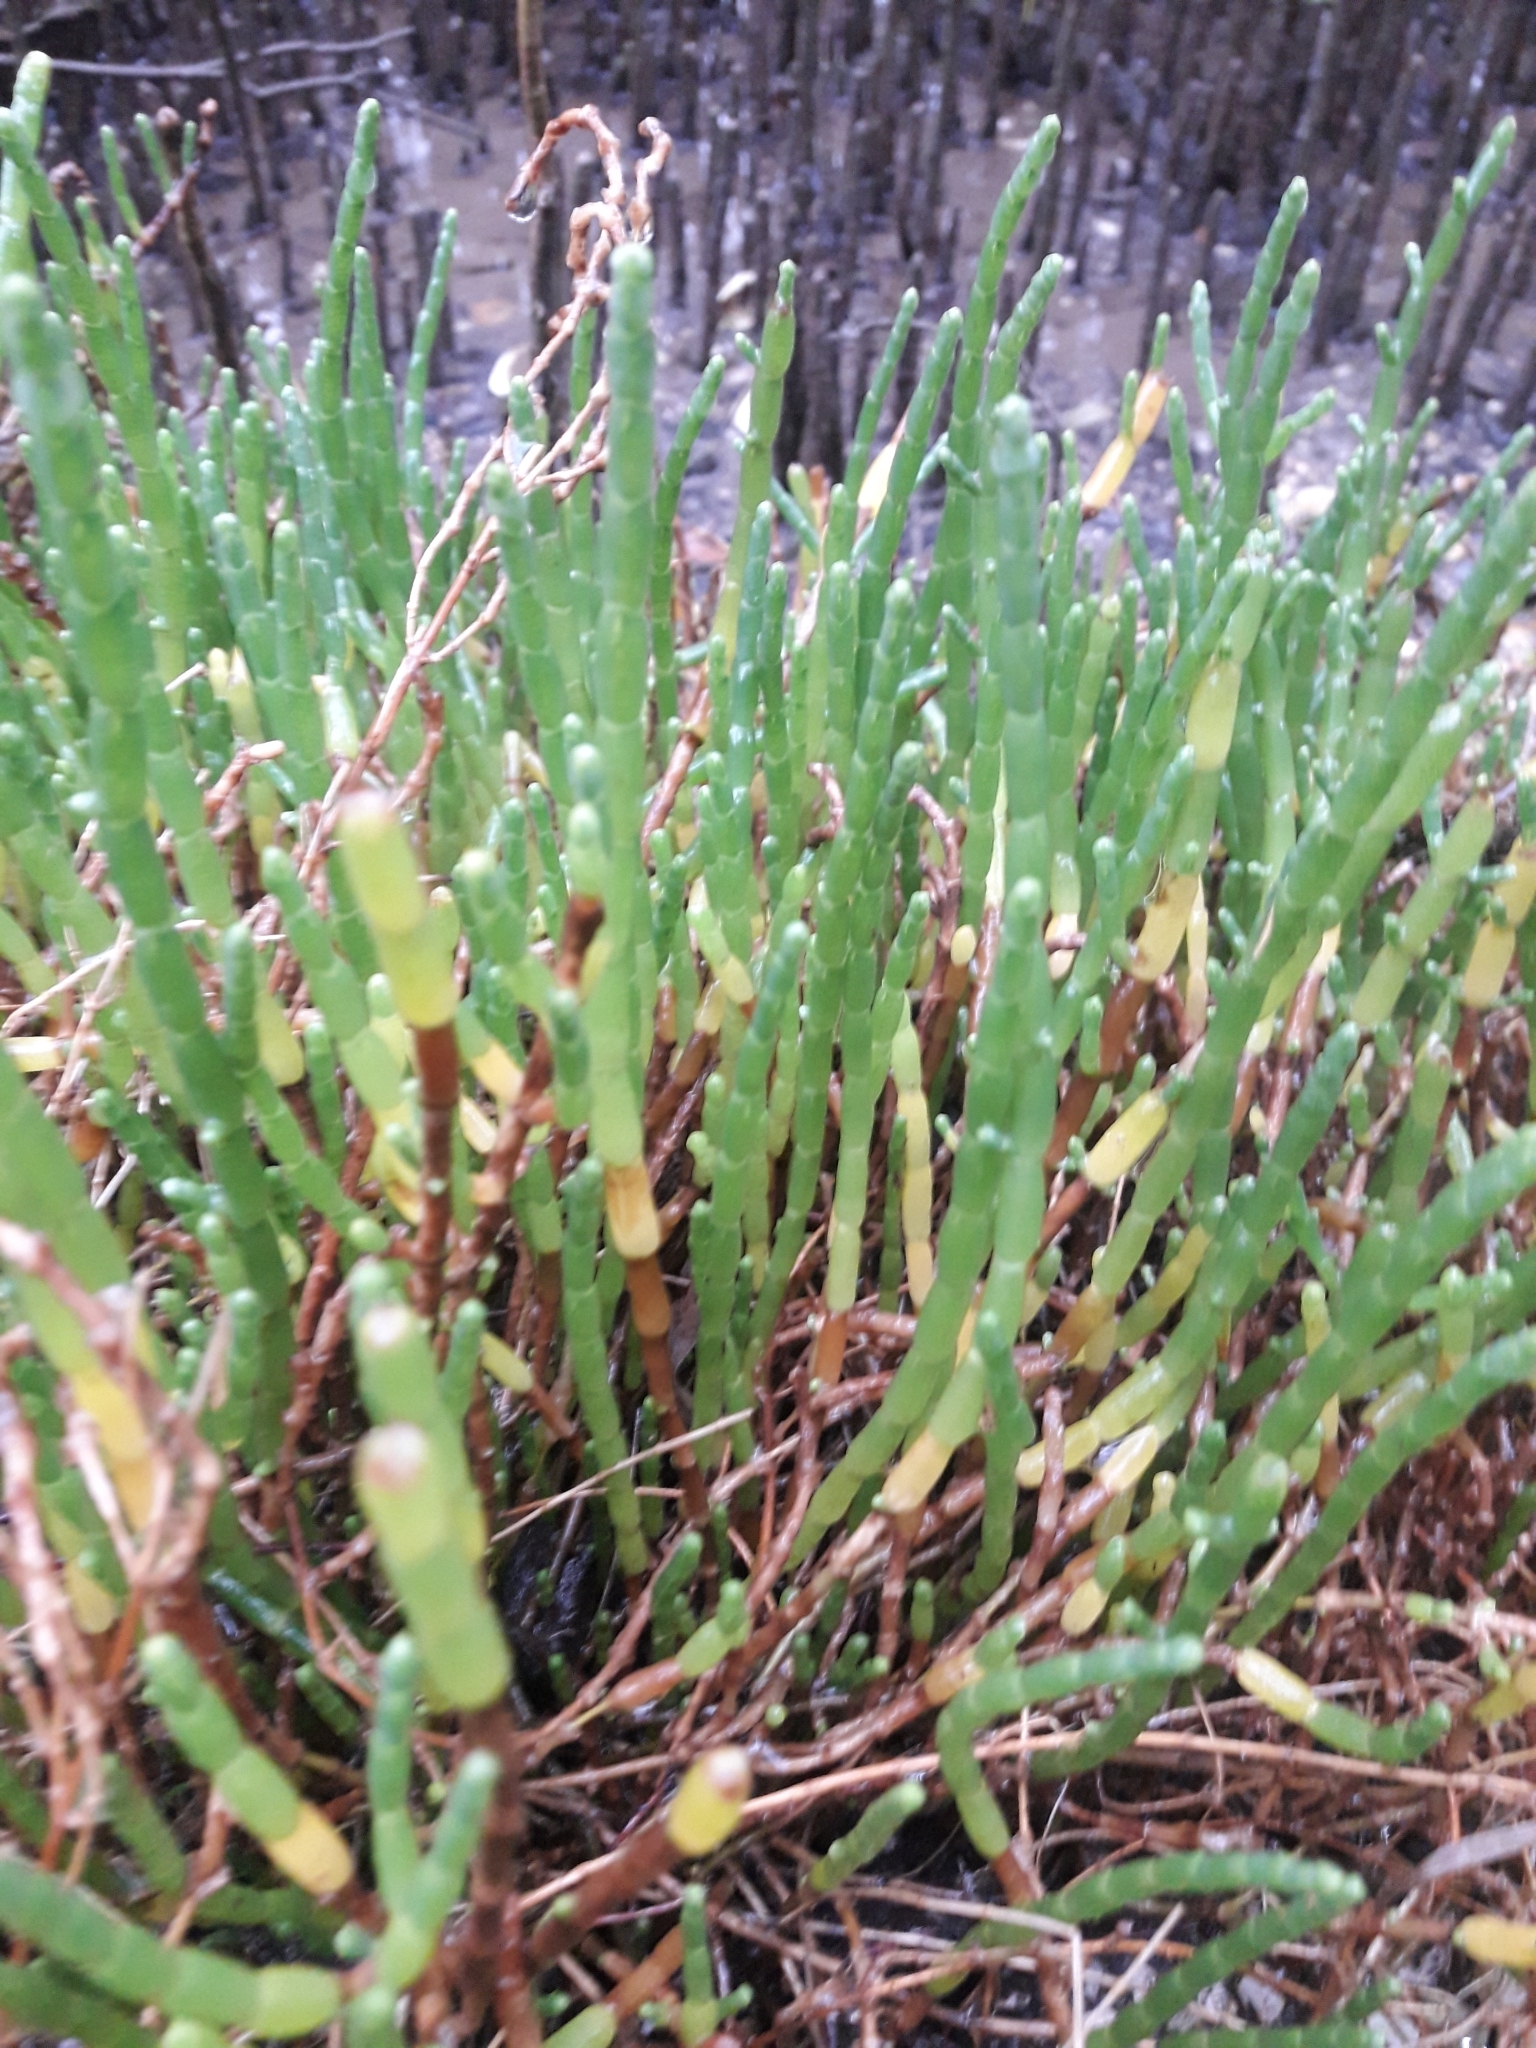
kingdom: Plantae
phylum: Tracheophyta
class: Magnoliopsida
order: Caryophyllales
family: Amaranthaceae
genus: Salicornia
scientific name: Salicornia quinqueflora
